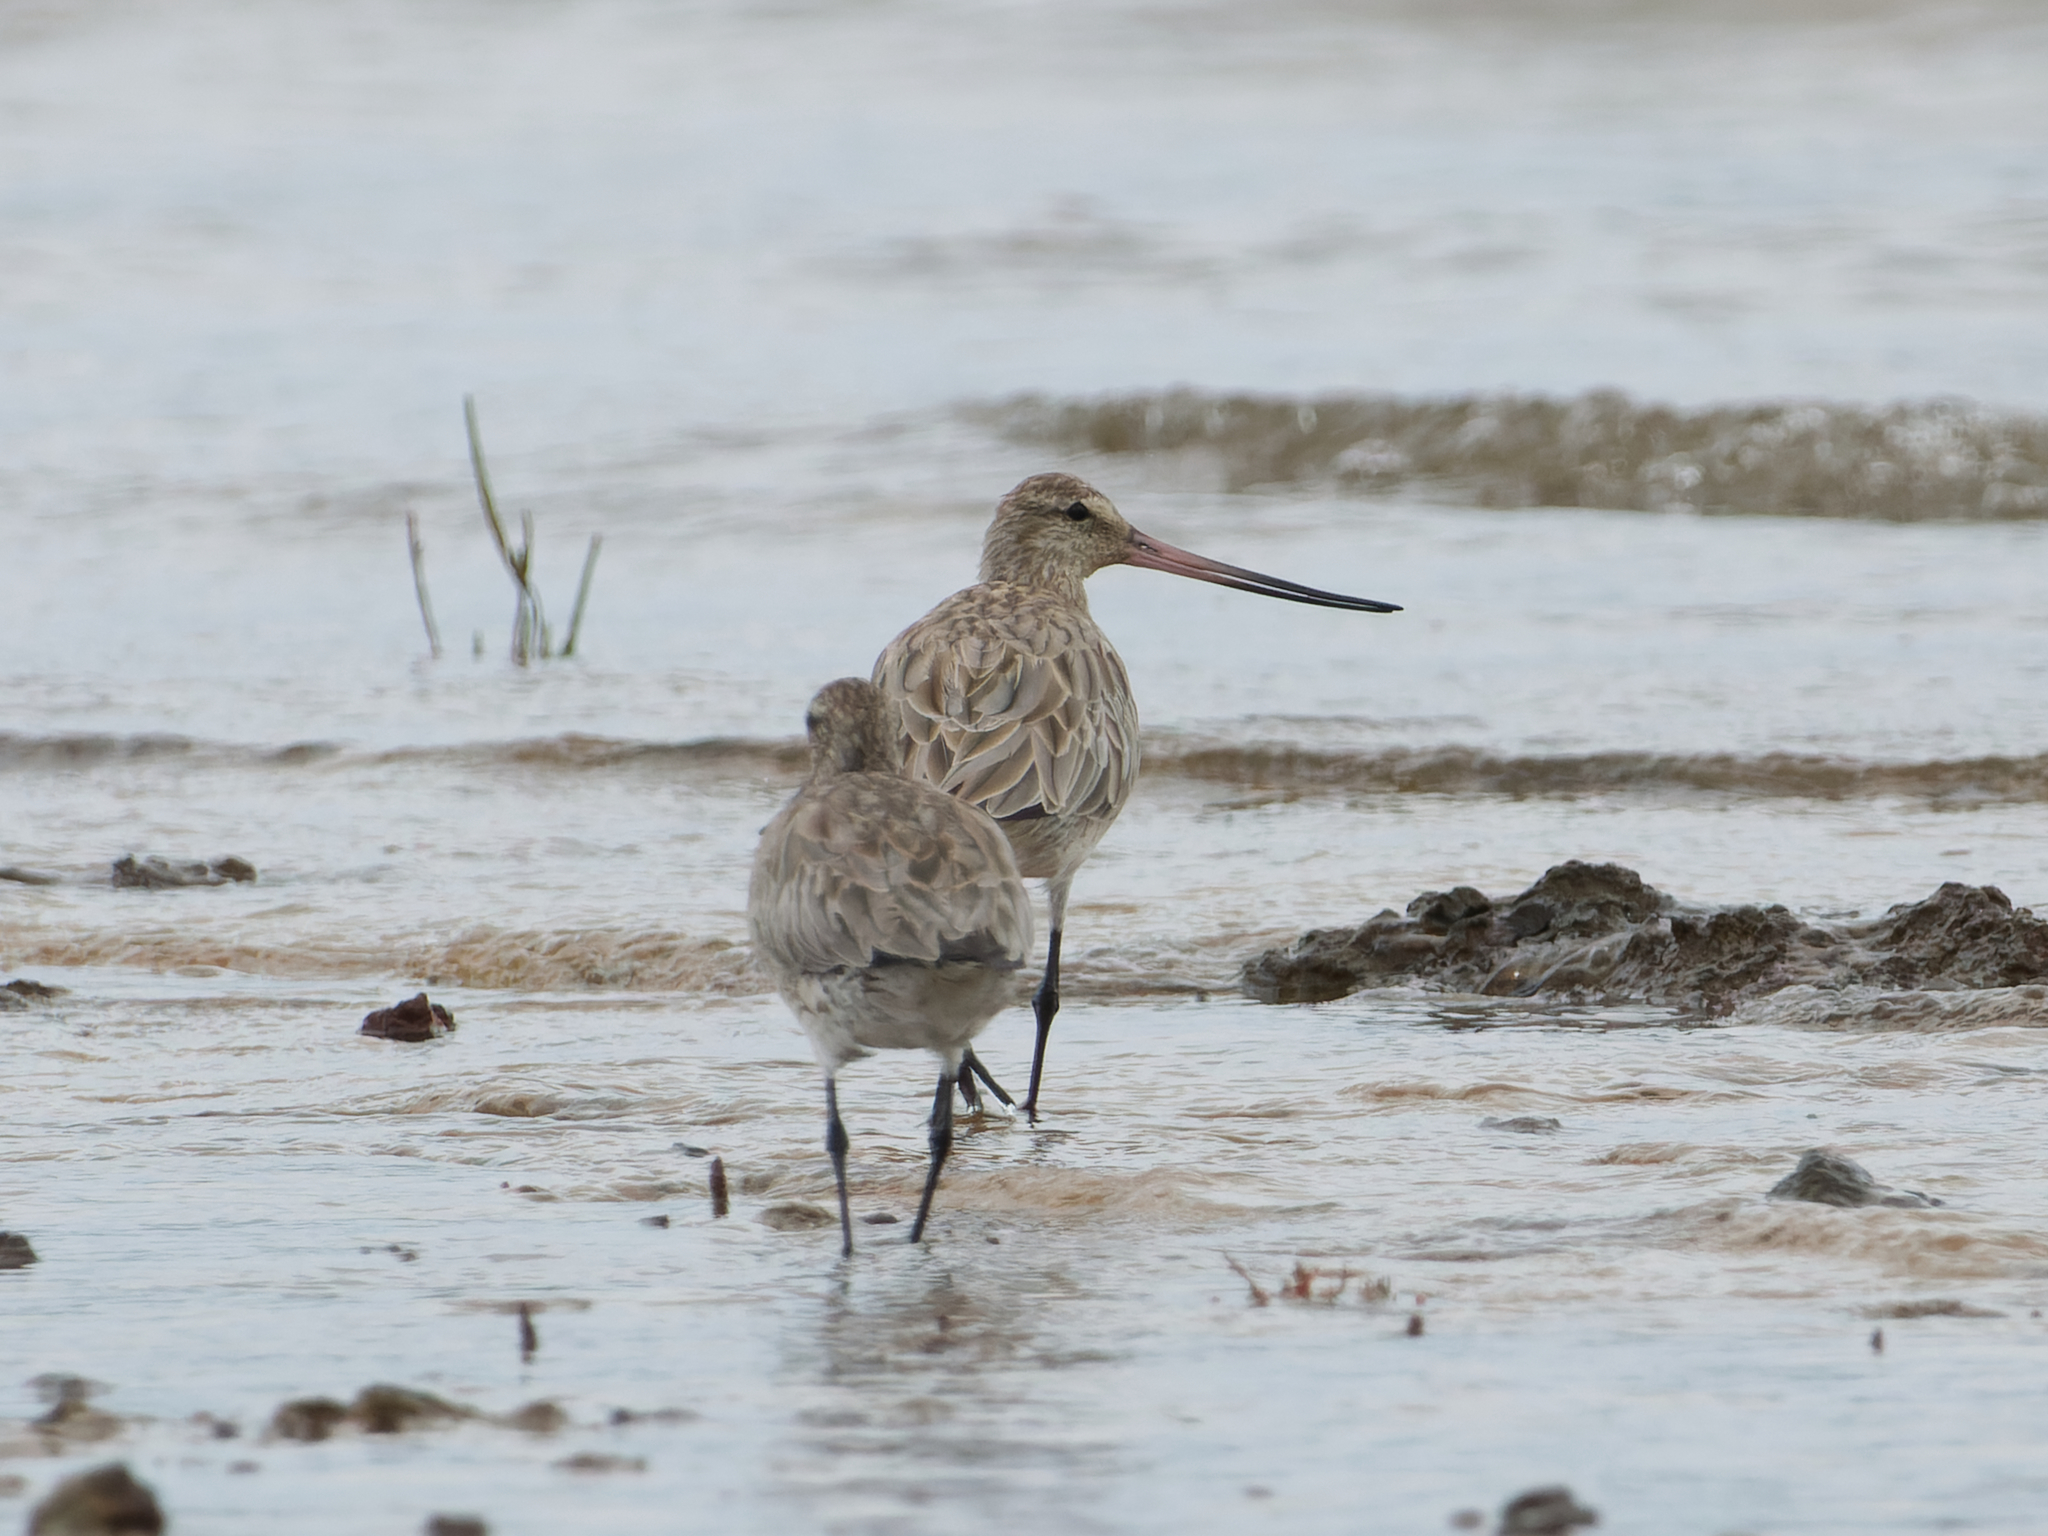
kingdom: Animalia
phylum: Chordata
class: Aves
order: Charadriiformes
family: Scolopacidae
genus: Limosa
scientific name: Limosa lapponica
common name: Bar-tailed godwit
